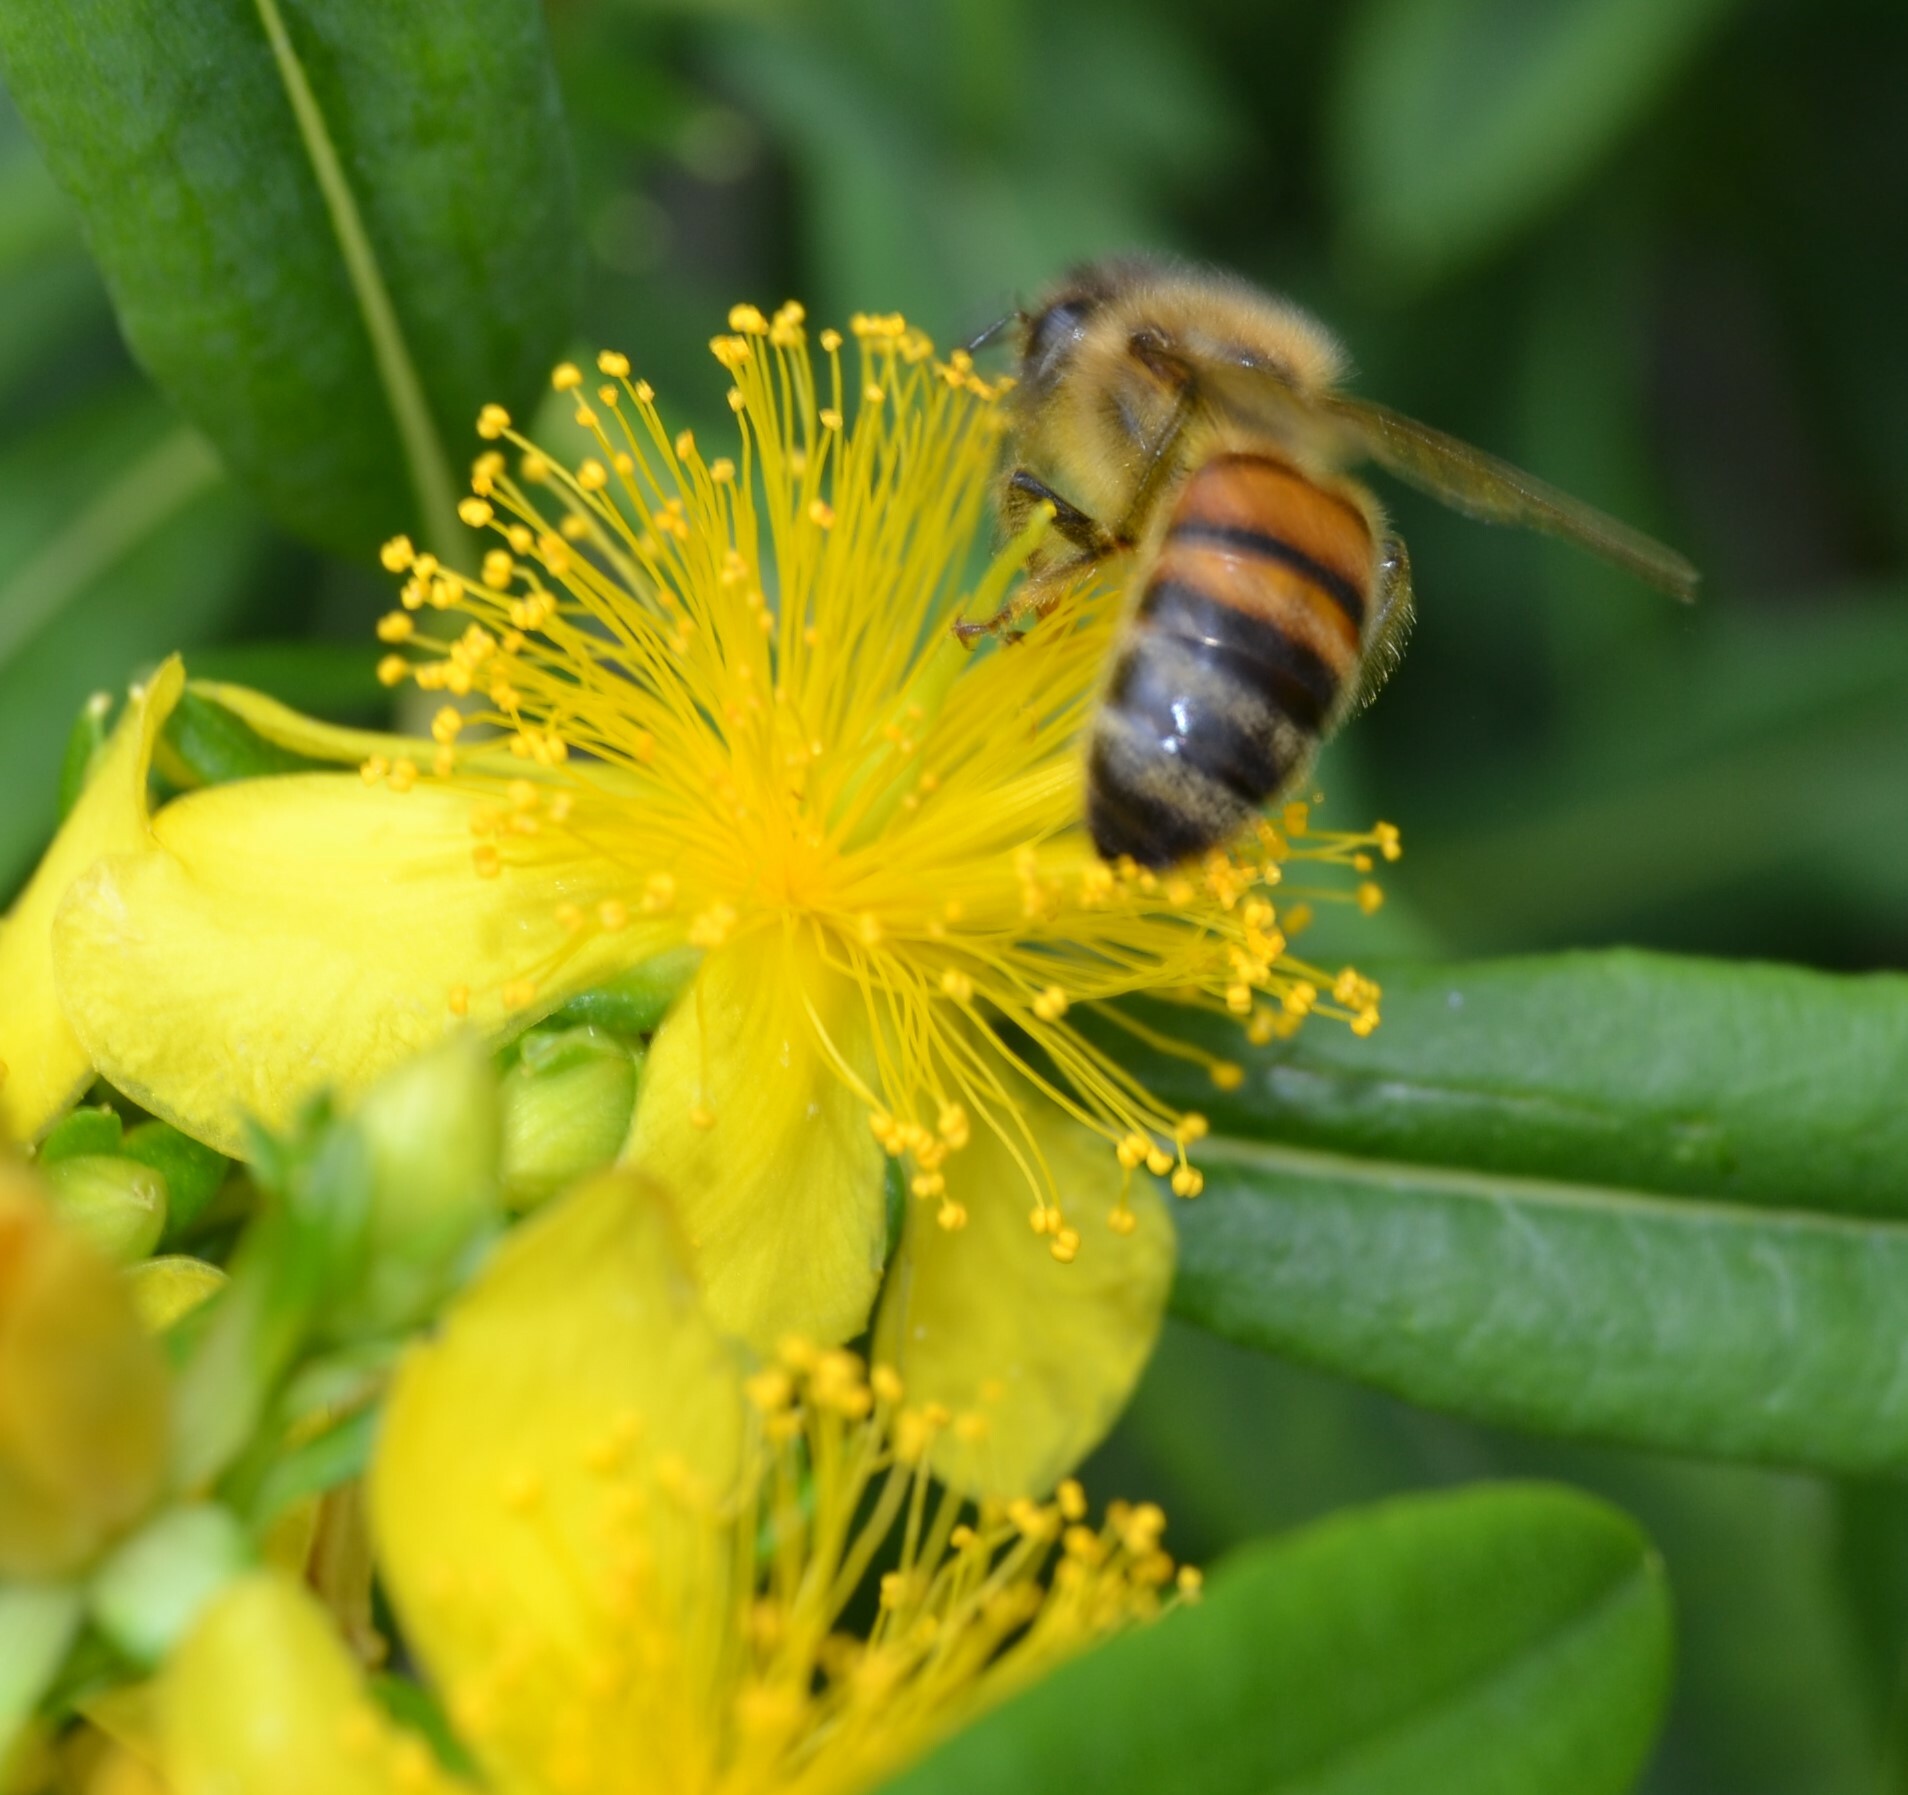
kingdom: Animalia
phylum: Arthropoda
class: Insecta
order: Hymenoptera
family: Apidae
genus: Apis
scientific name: Apis mellifera
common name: Honey bee
